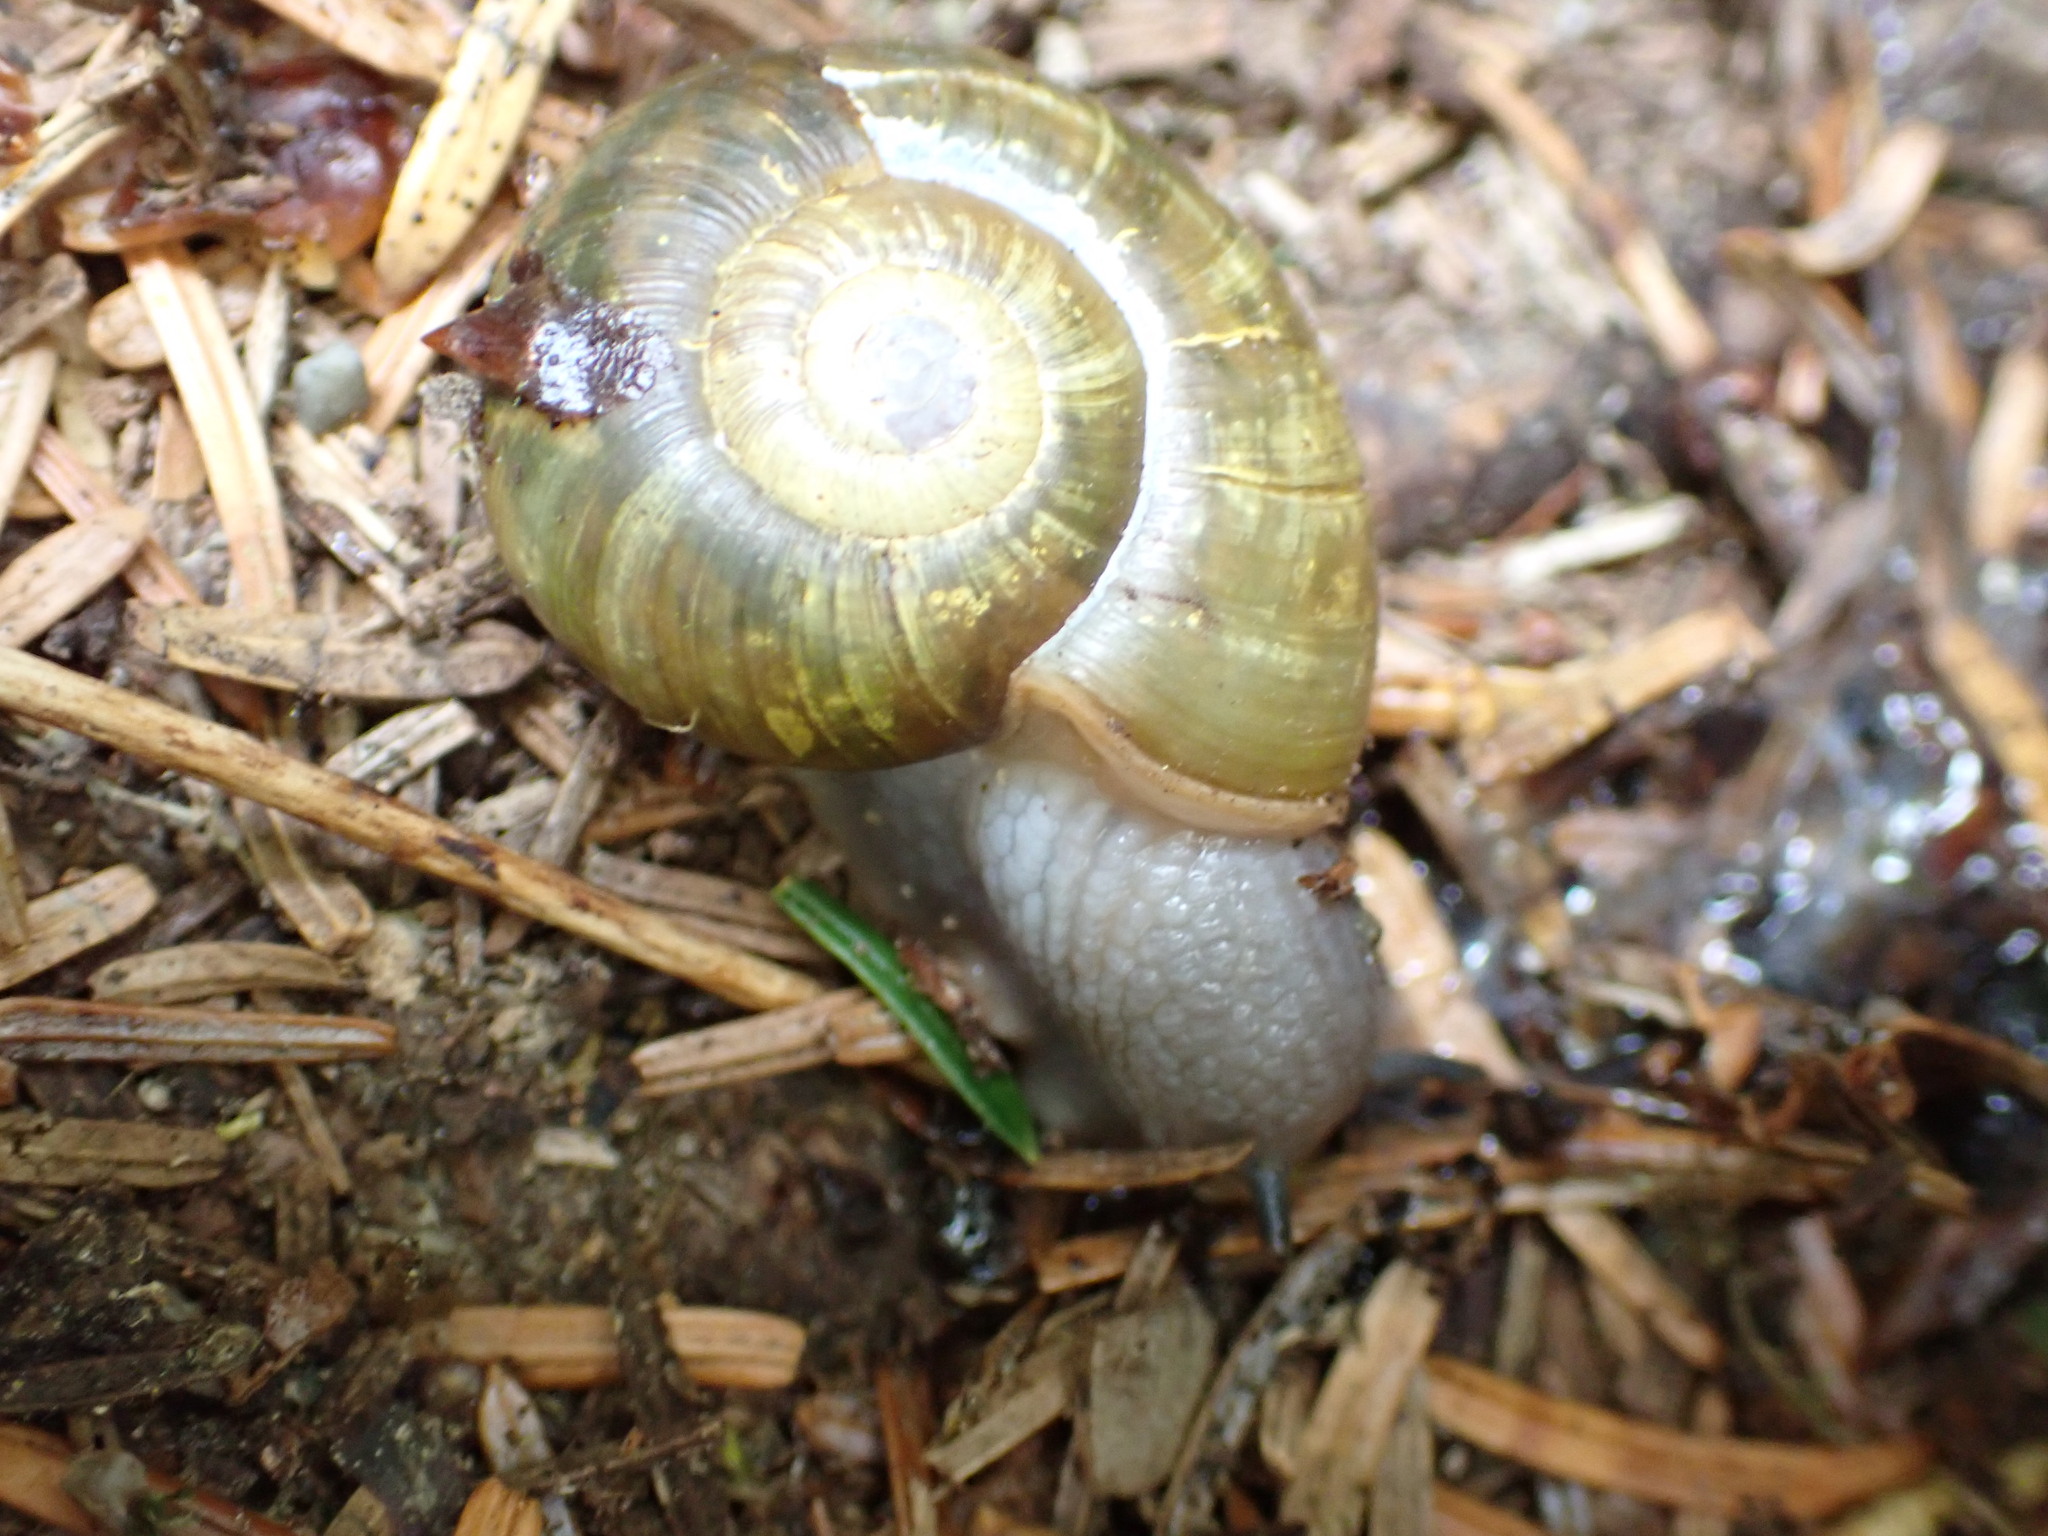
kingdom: Animalia
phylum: Mollusca
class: Gastropoda
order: Stylommatophora
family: Haplotrematidae
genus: Haplotrema
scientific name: Haplotrema vancouverense
